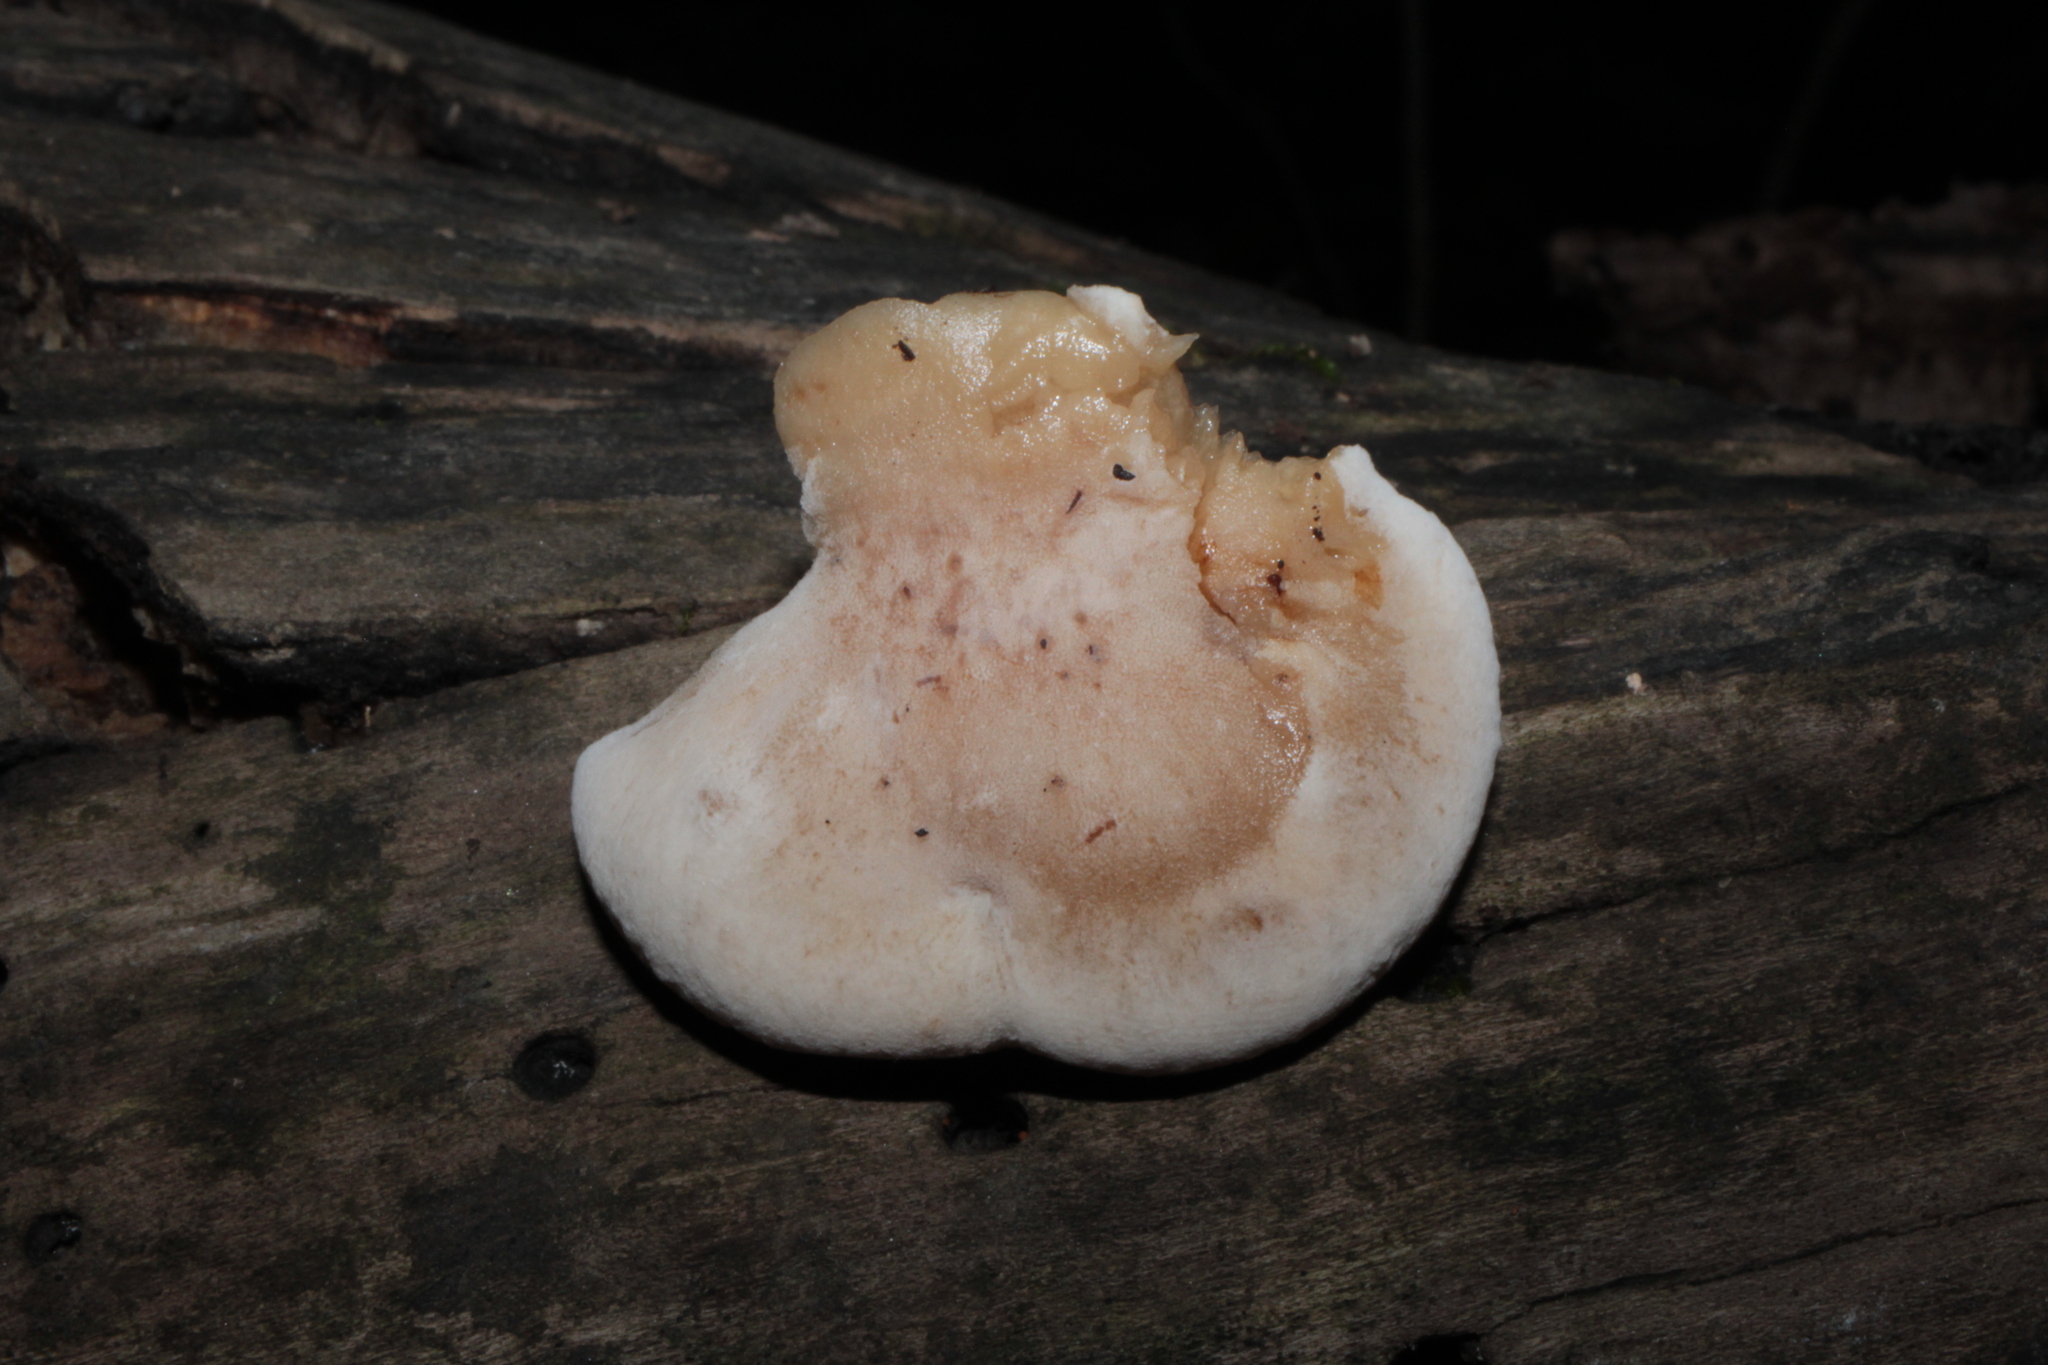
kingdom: Fungi
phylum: Basidiomycota
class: Agaricomycetes
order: Polyporales
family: Ischnodermataceae
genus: Ischnoderma
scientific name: Ischnoderma resinosum
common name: Resinous polypore
